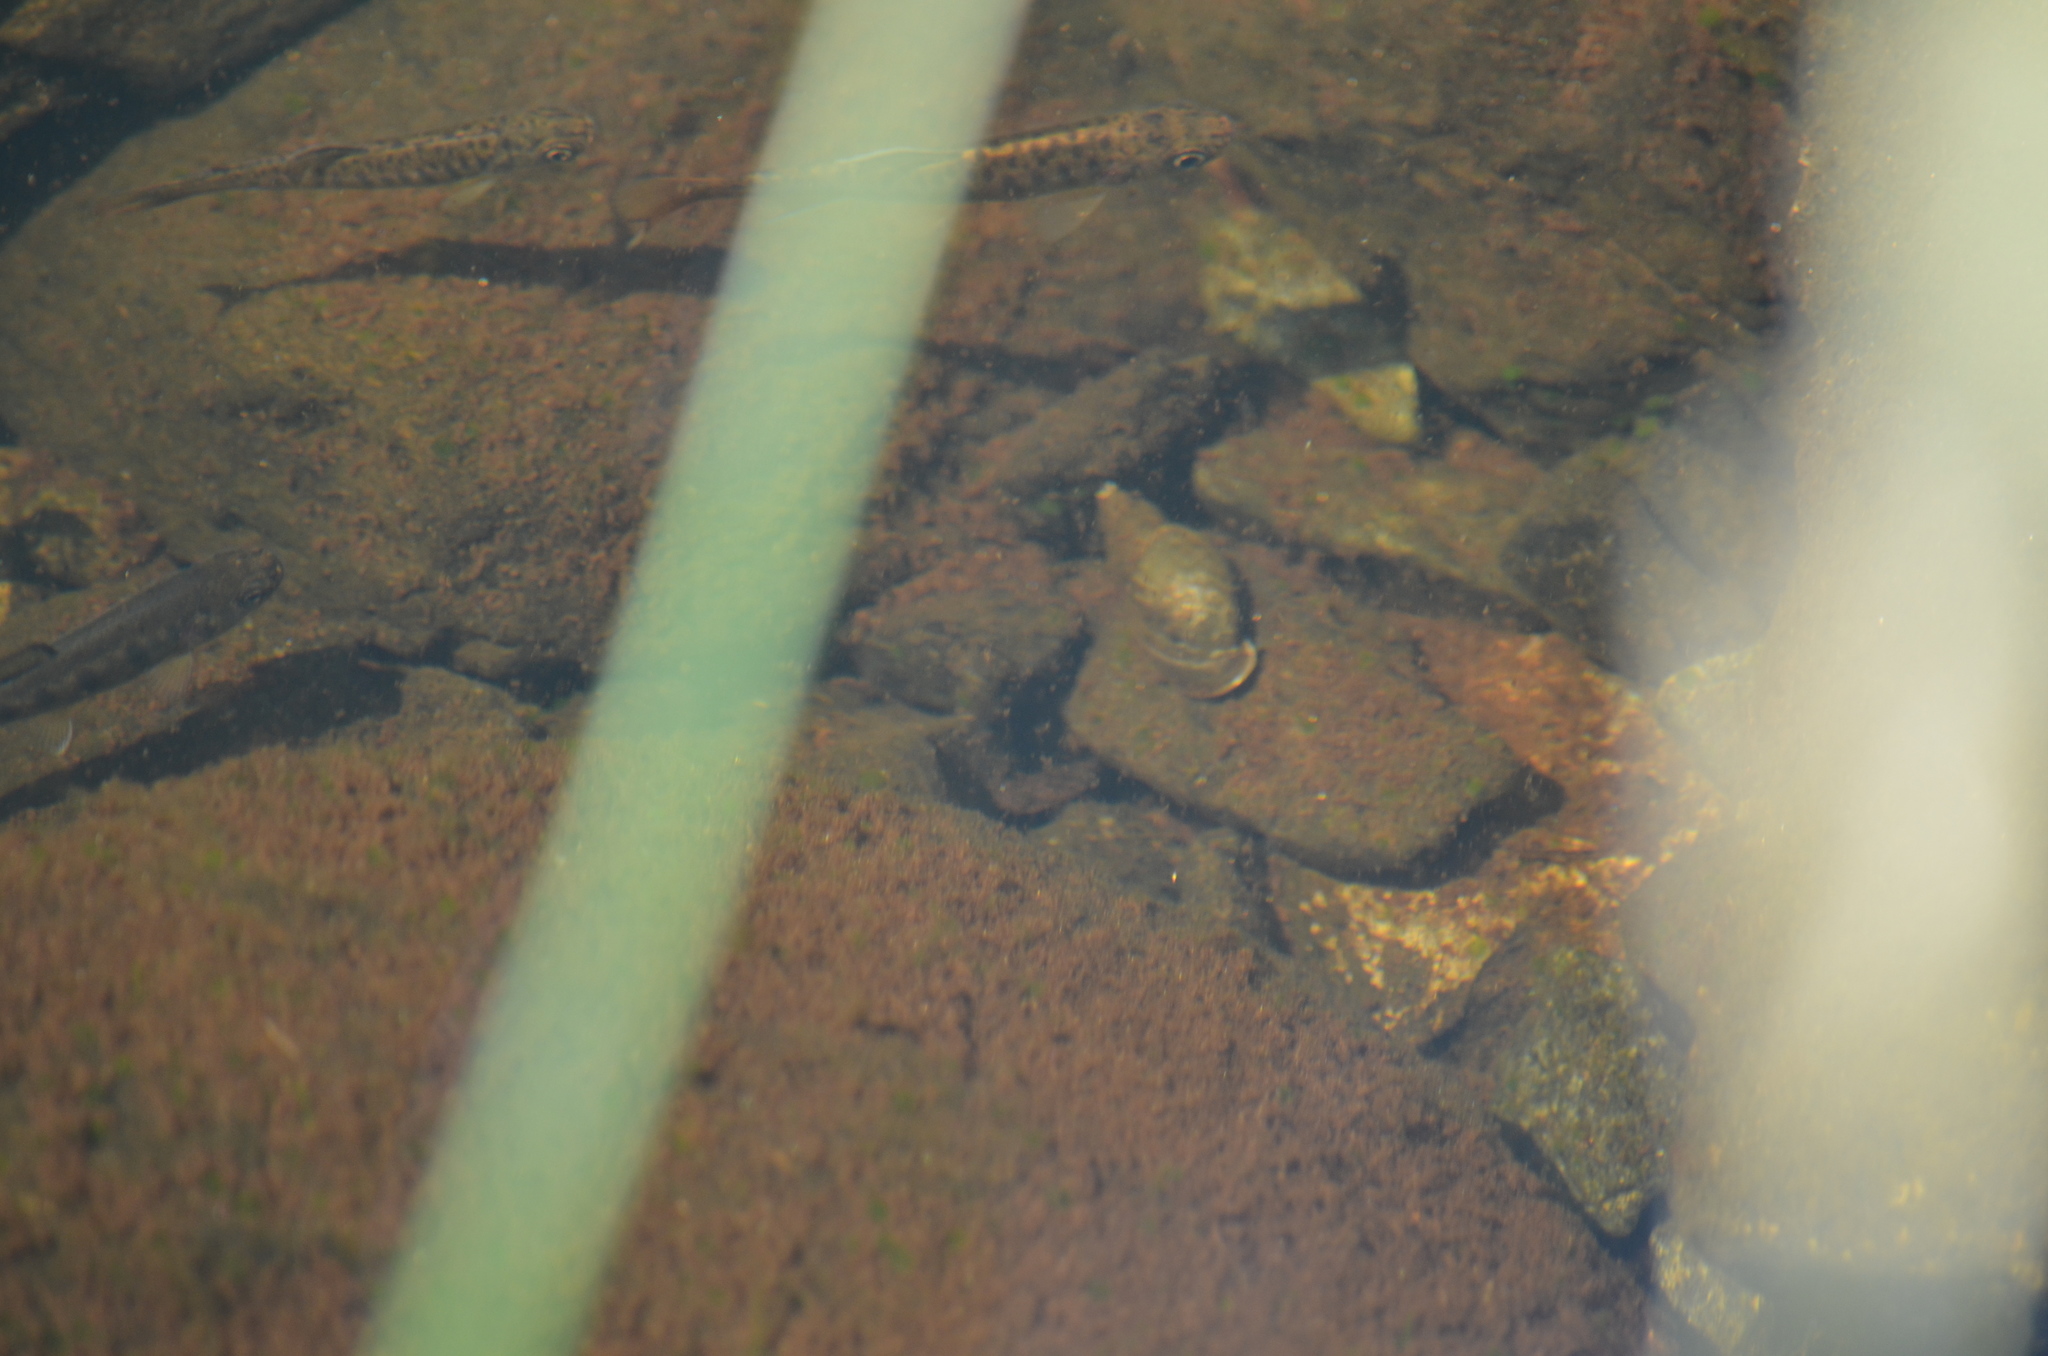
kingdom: Animalia
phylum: Mollusca
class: Gastropoda
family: Lymnaeidae
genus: Lymnaea
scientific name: Lymnaea stagnalis
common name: Great pond snail
